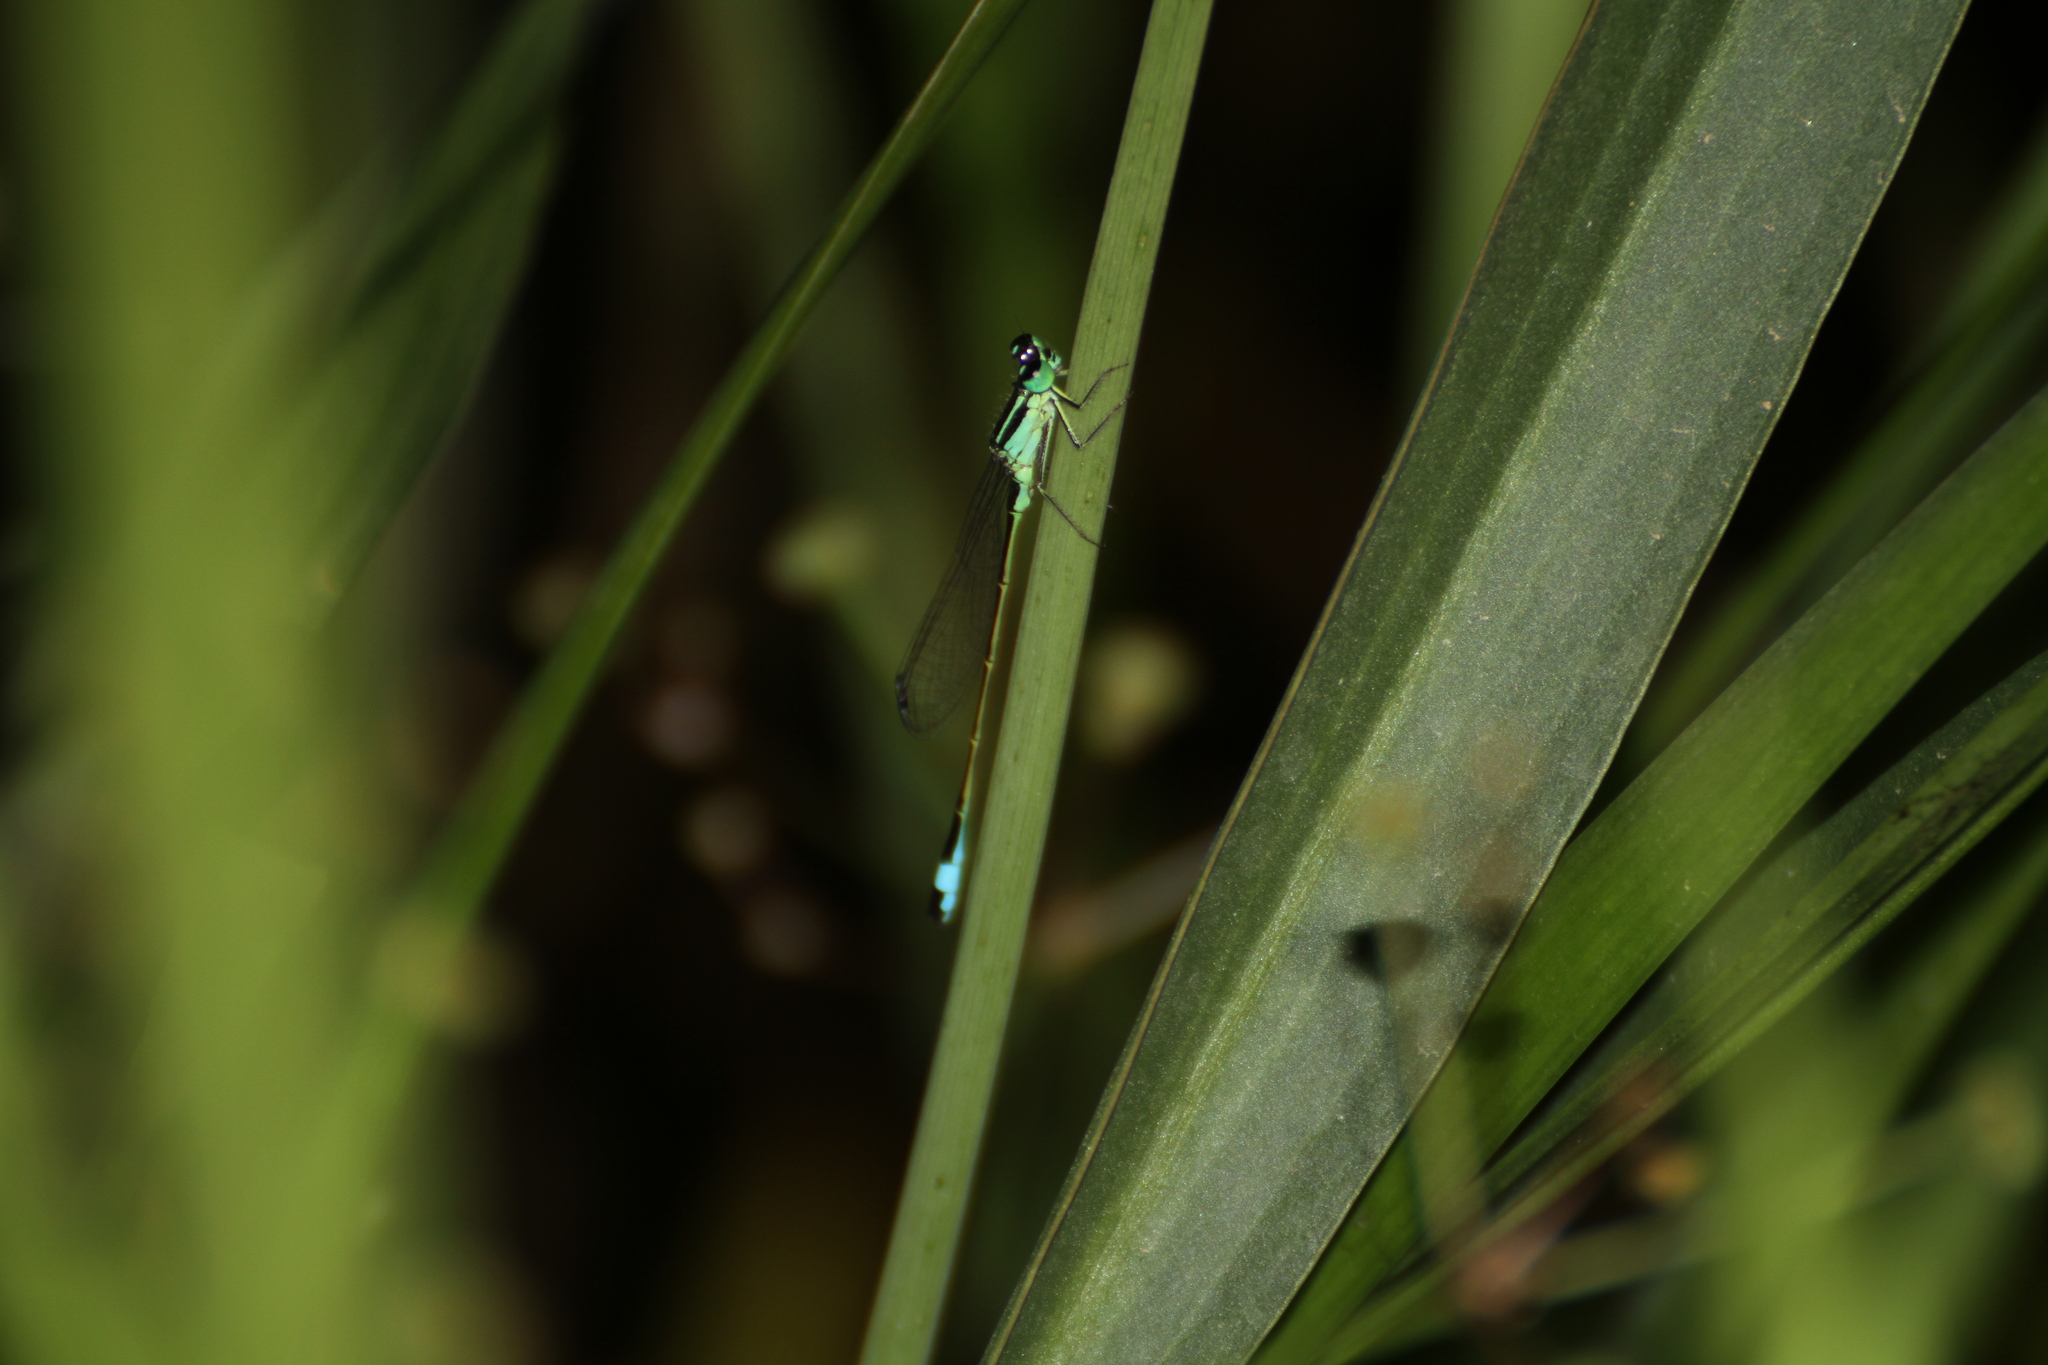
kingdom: Animalia
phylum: Arthropoda
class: Insecta
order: Odonata
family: Coenagrionidae
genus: Ischnura
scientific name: Ischnura elegans
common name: Blue-tailed damselfly
